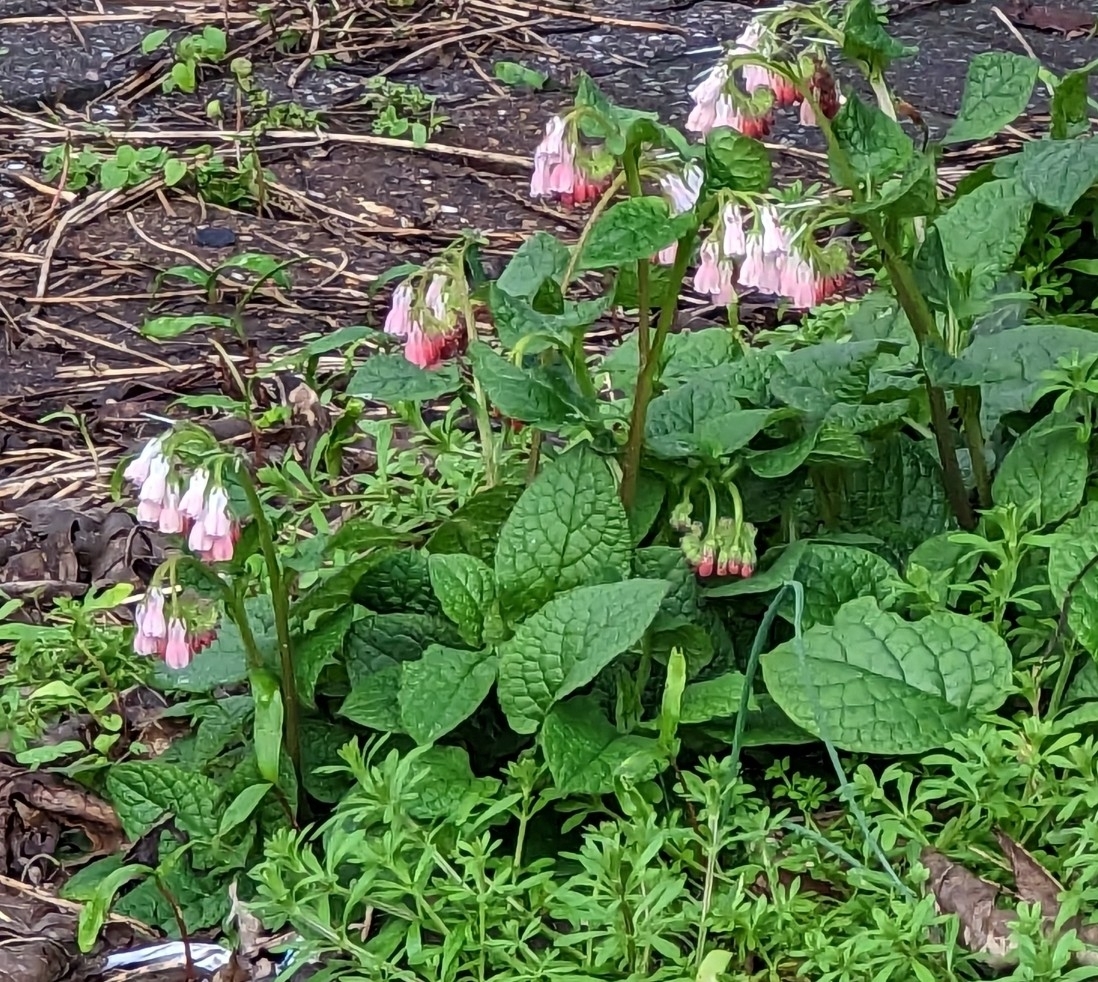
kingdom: Plantae
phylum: Tracheophyta
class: Magnoliopsida
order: Boraginales
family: Boraginaceae
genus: Symphytum
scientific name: Symphytum hidcotense
